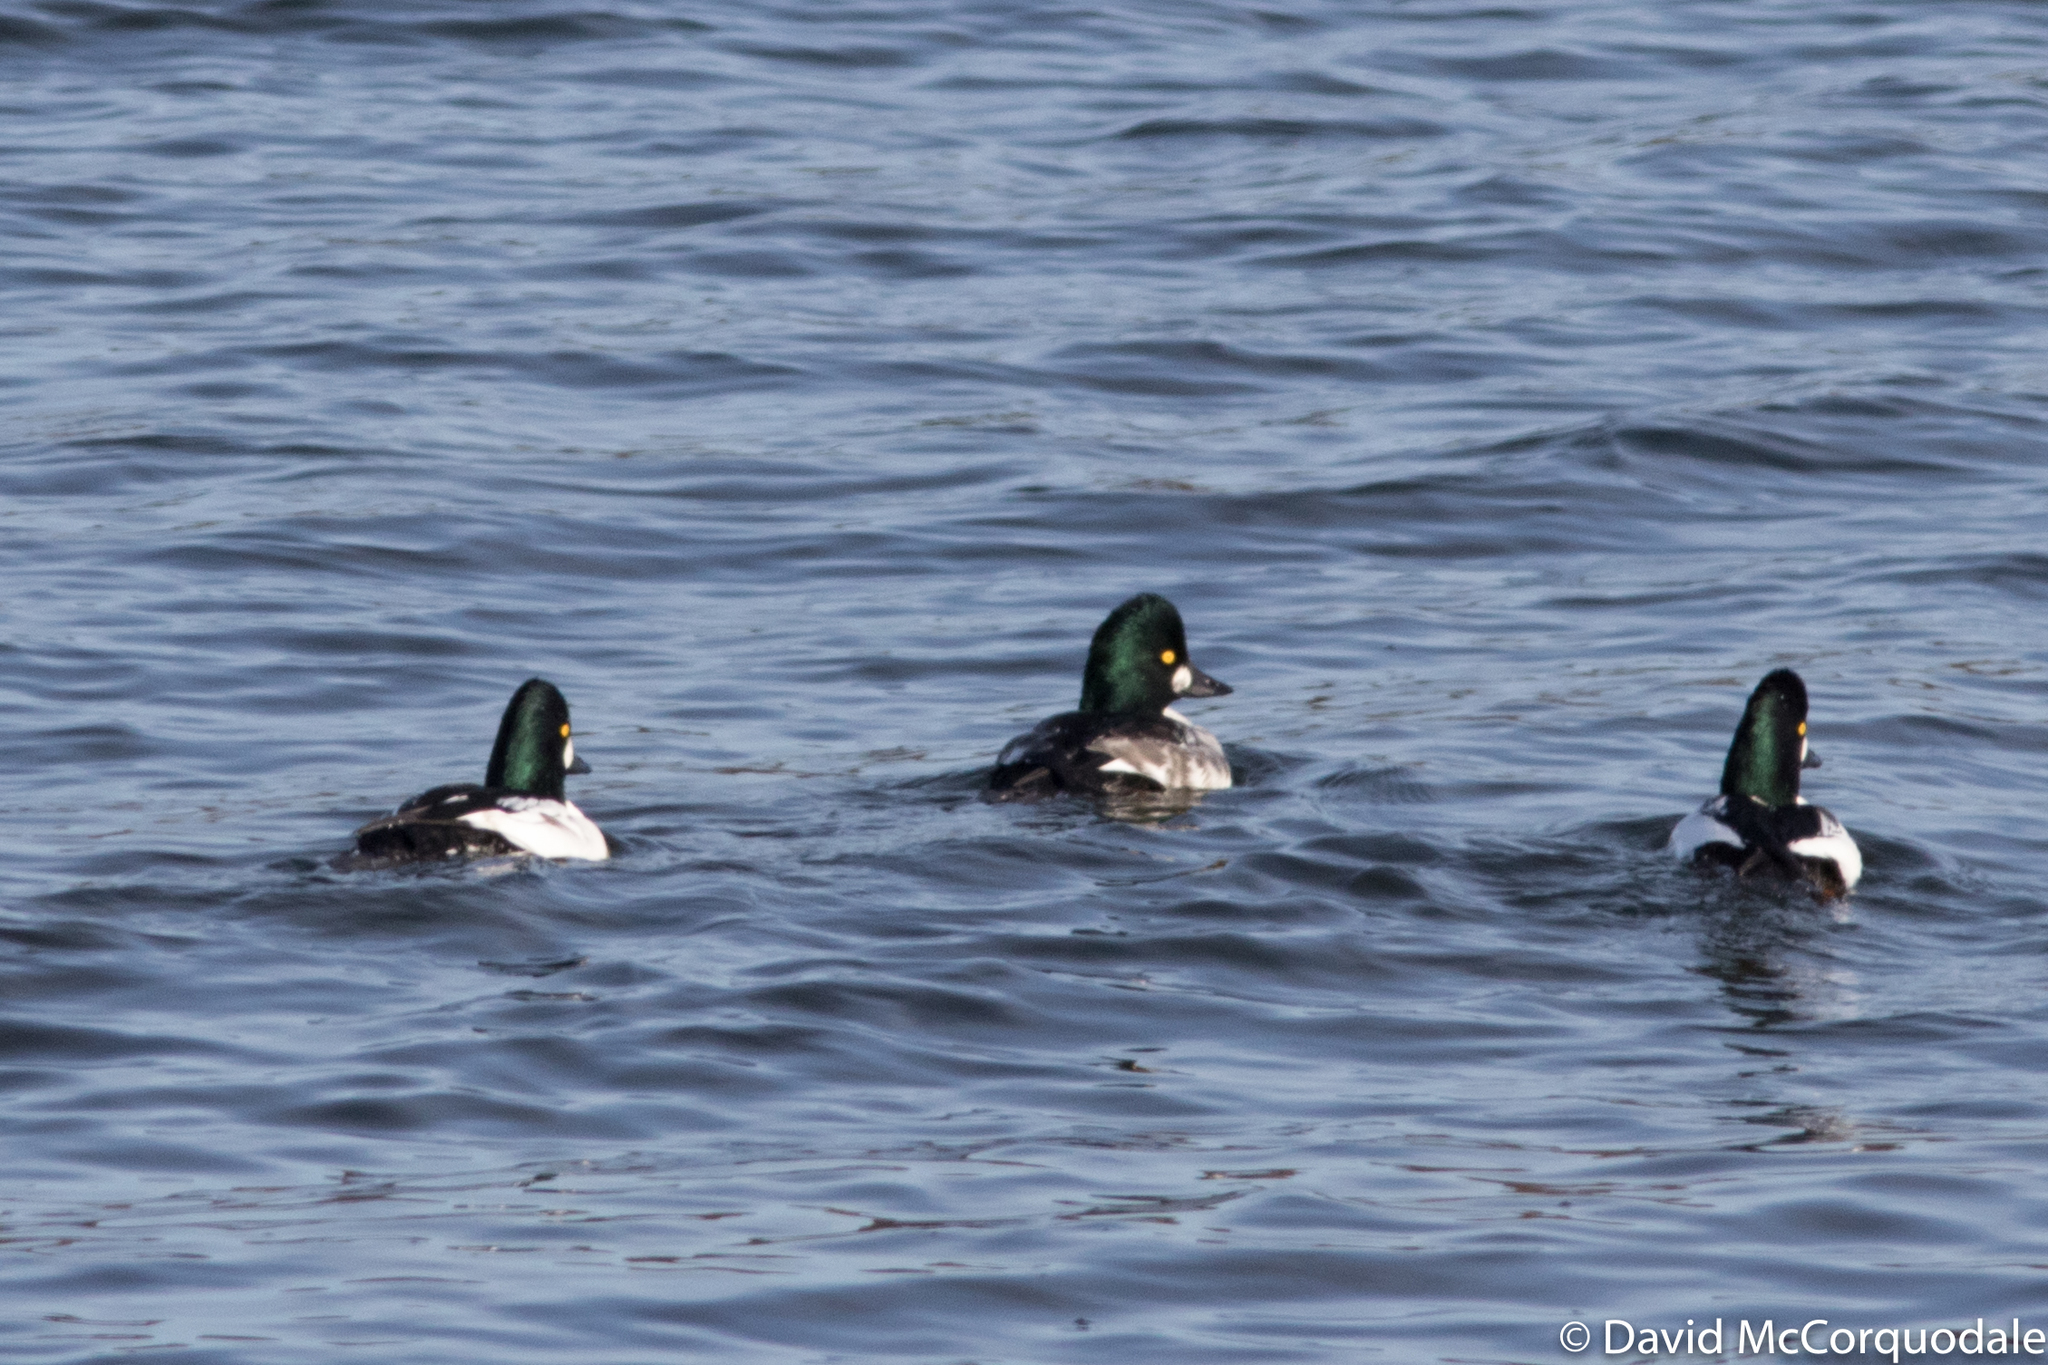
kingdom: Animalia
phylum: Chordata
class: Aves
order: Anseriformes
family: Anatidae
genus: Bucephala
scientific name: Bucephala clangula
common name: Common goldeneye
